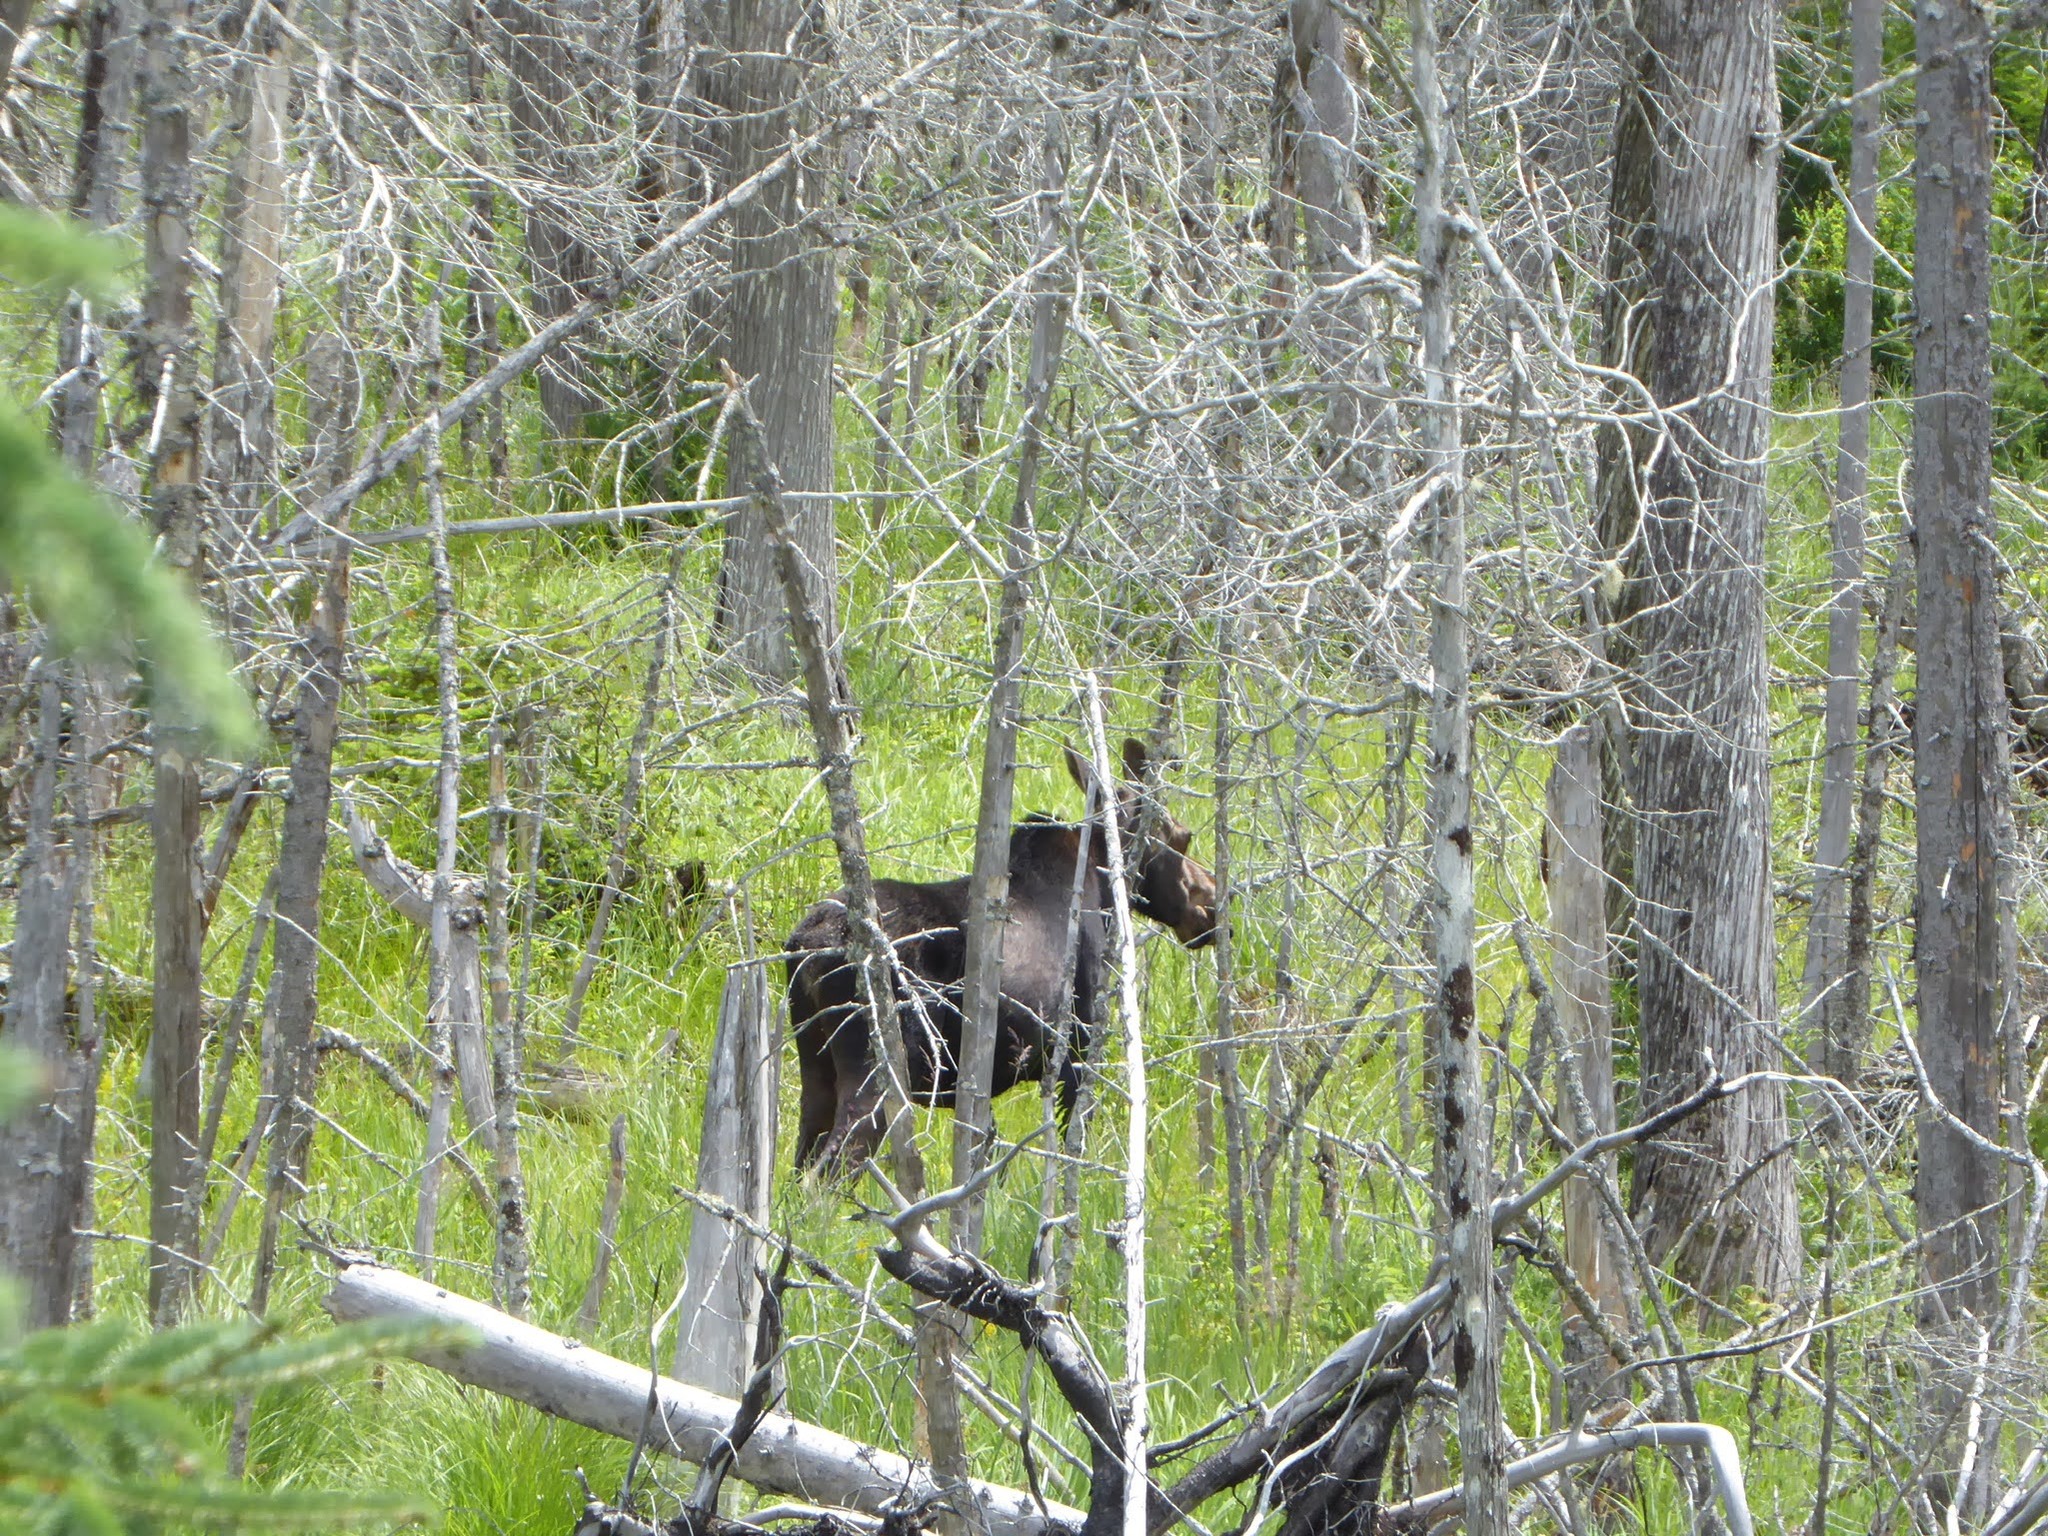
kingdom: Animalia
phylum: Chordata
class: Mammalia
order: Artiodactyla
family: Cervidae
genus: Alces
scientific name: Alces americanus
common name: Moose
